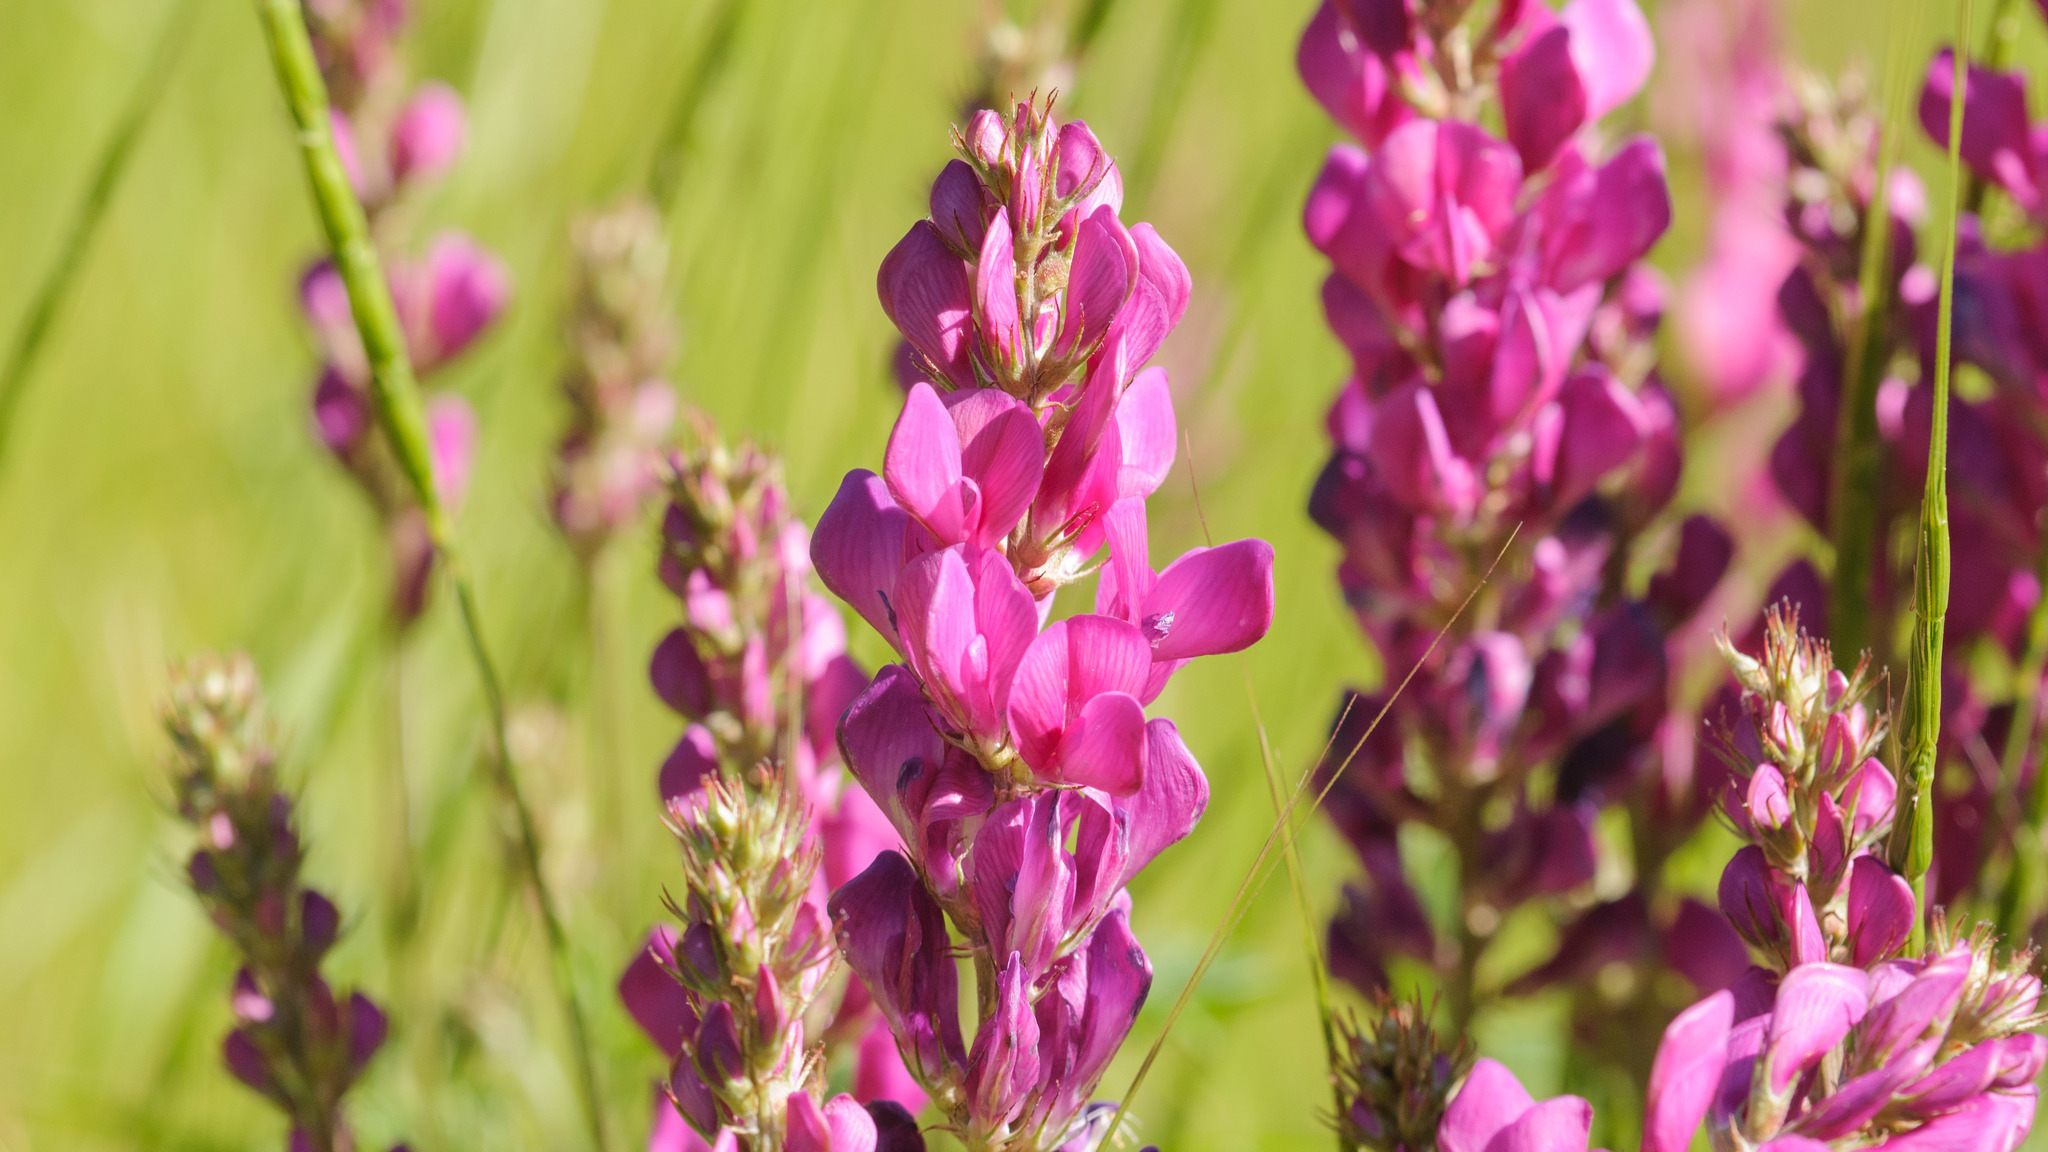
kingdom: Plantae
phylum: Tracheophyta
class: Magnoliopsida
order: Fabales
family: Fabaceae
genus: Hedysarum
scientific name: Hedysarum boreale
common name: Northern sweet-vetch
